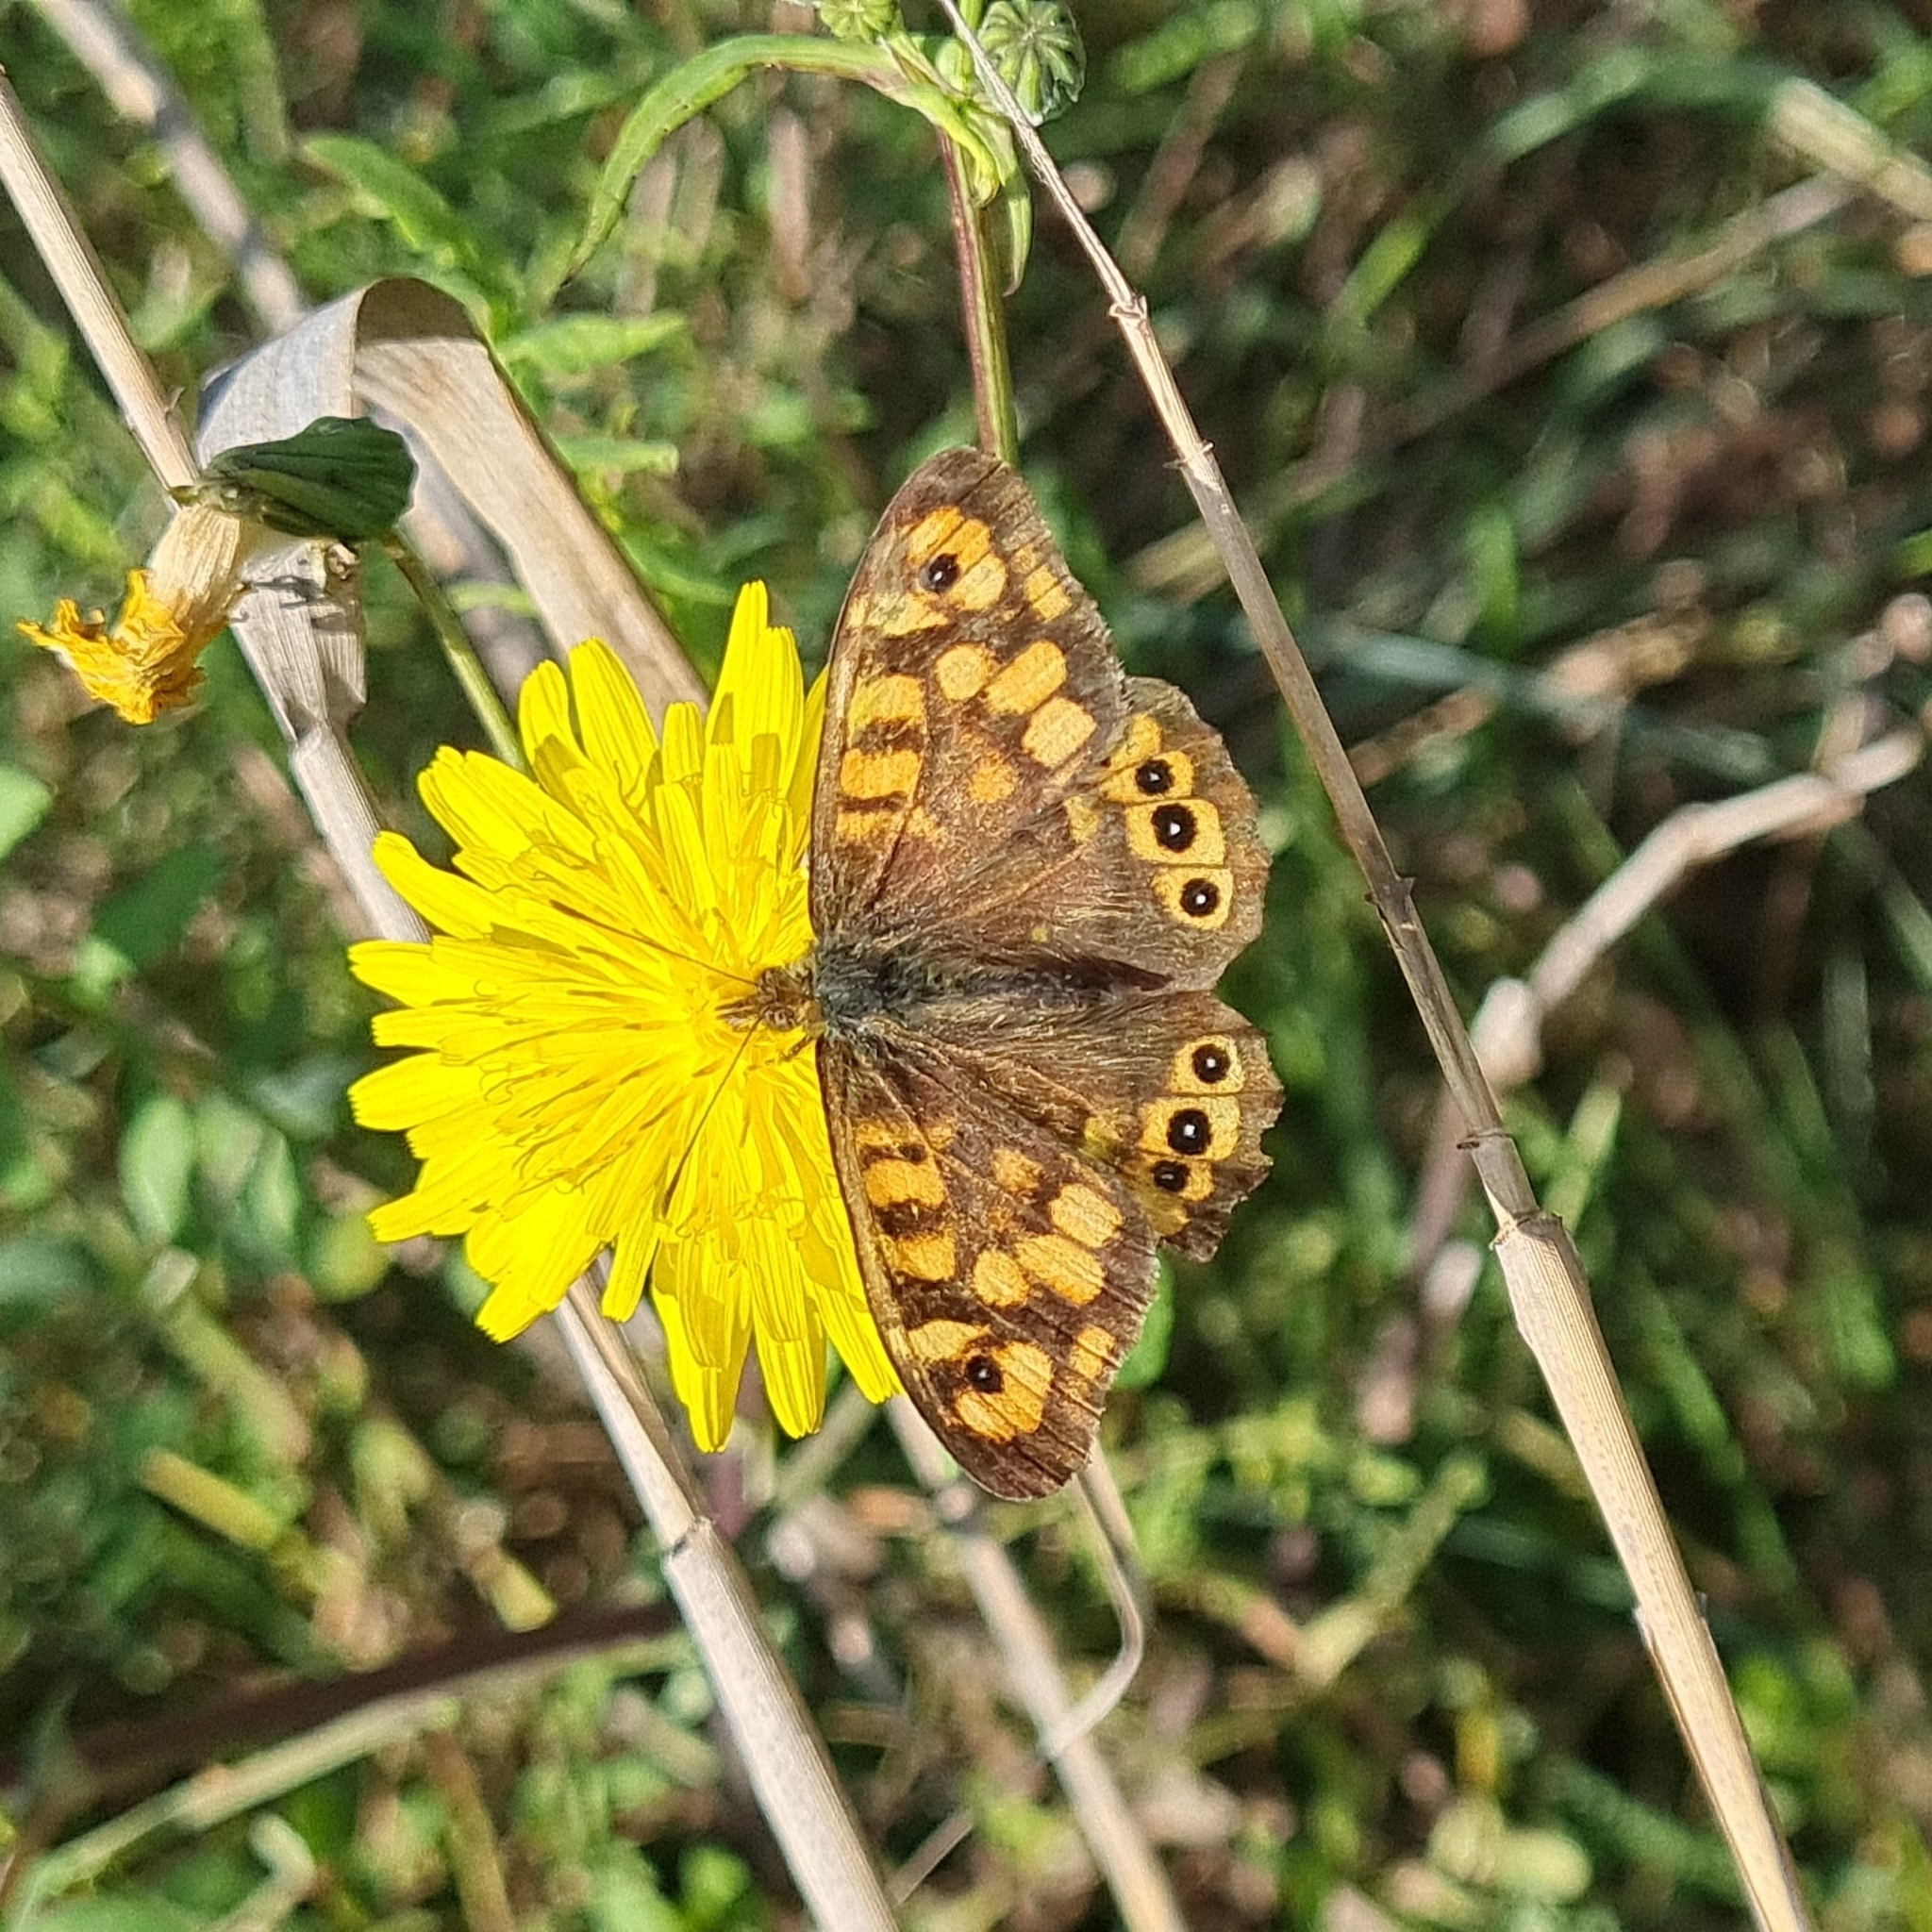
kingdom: Animalia
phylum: Arthropoda
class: Insecta
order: Lepidoptera
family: Nymphalidae
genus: Pararge
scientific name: Pararge aegeria
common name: Speckled wood
